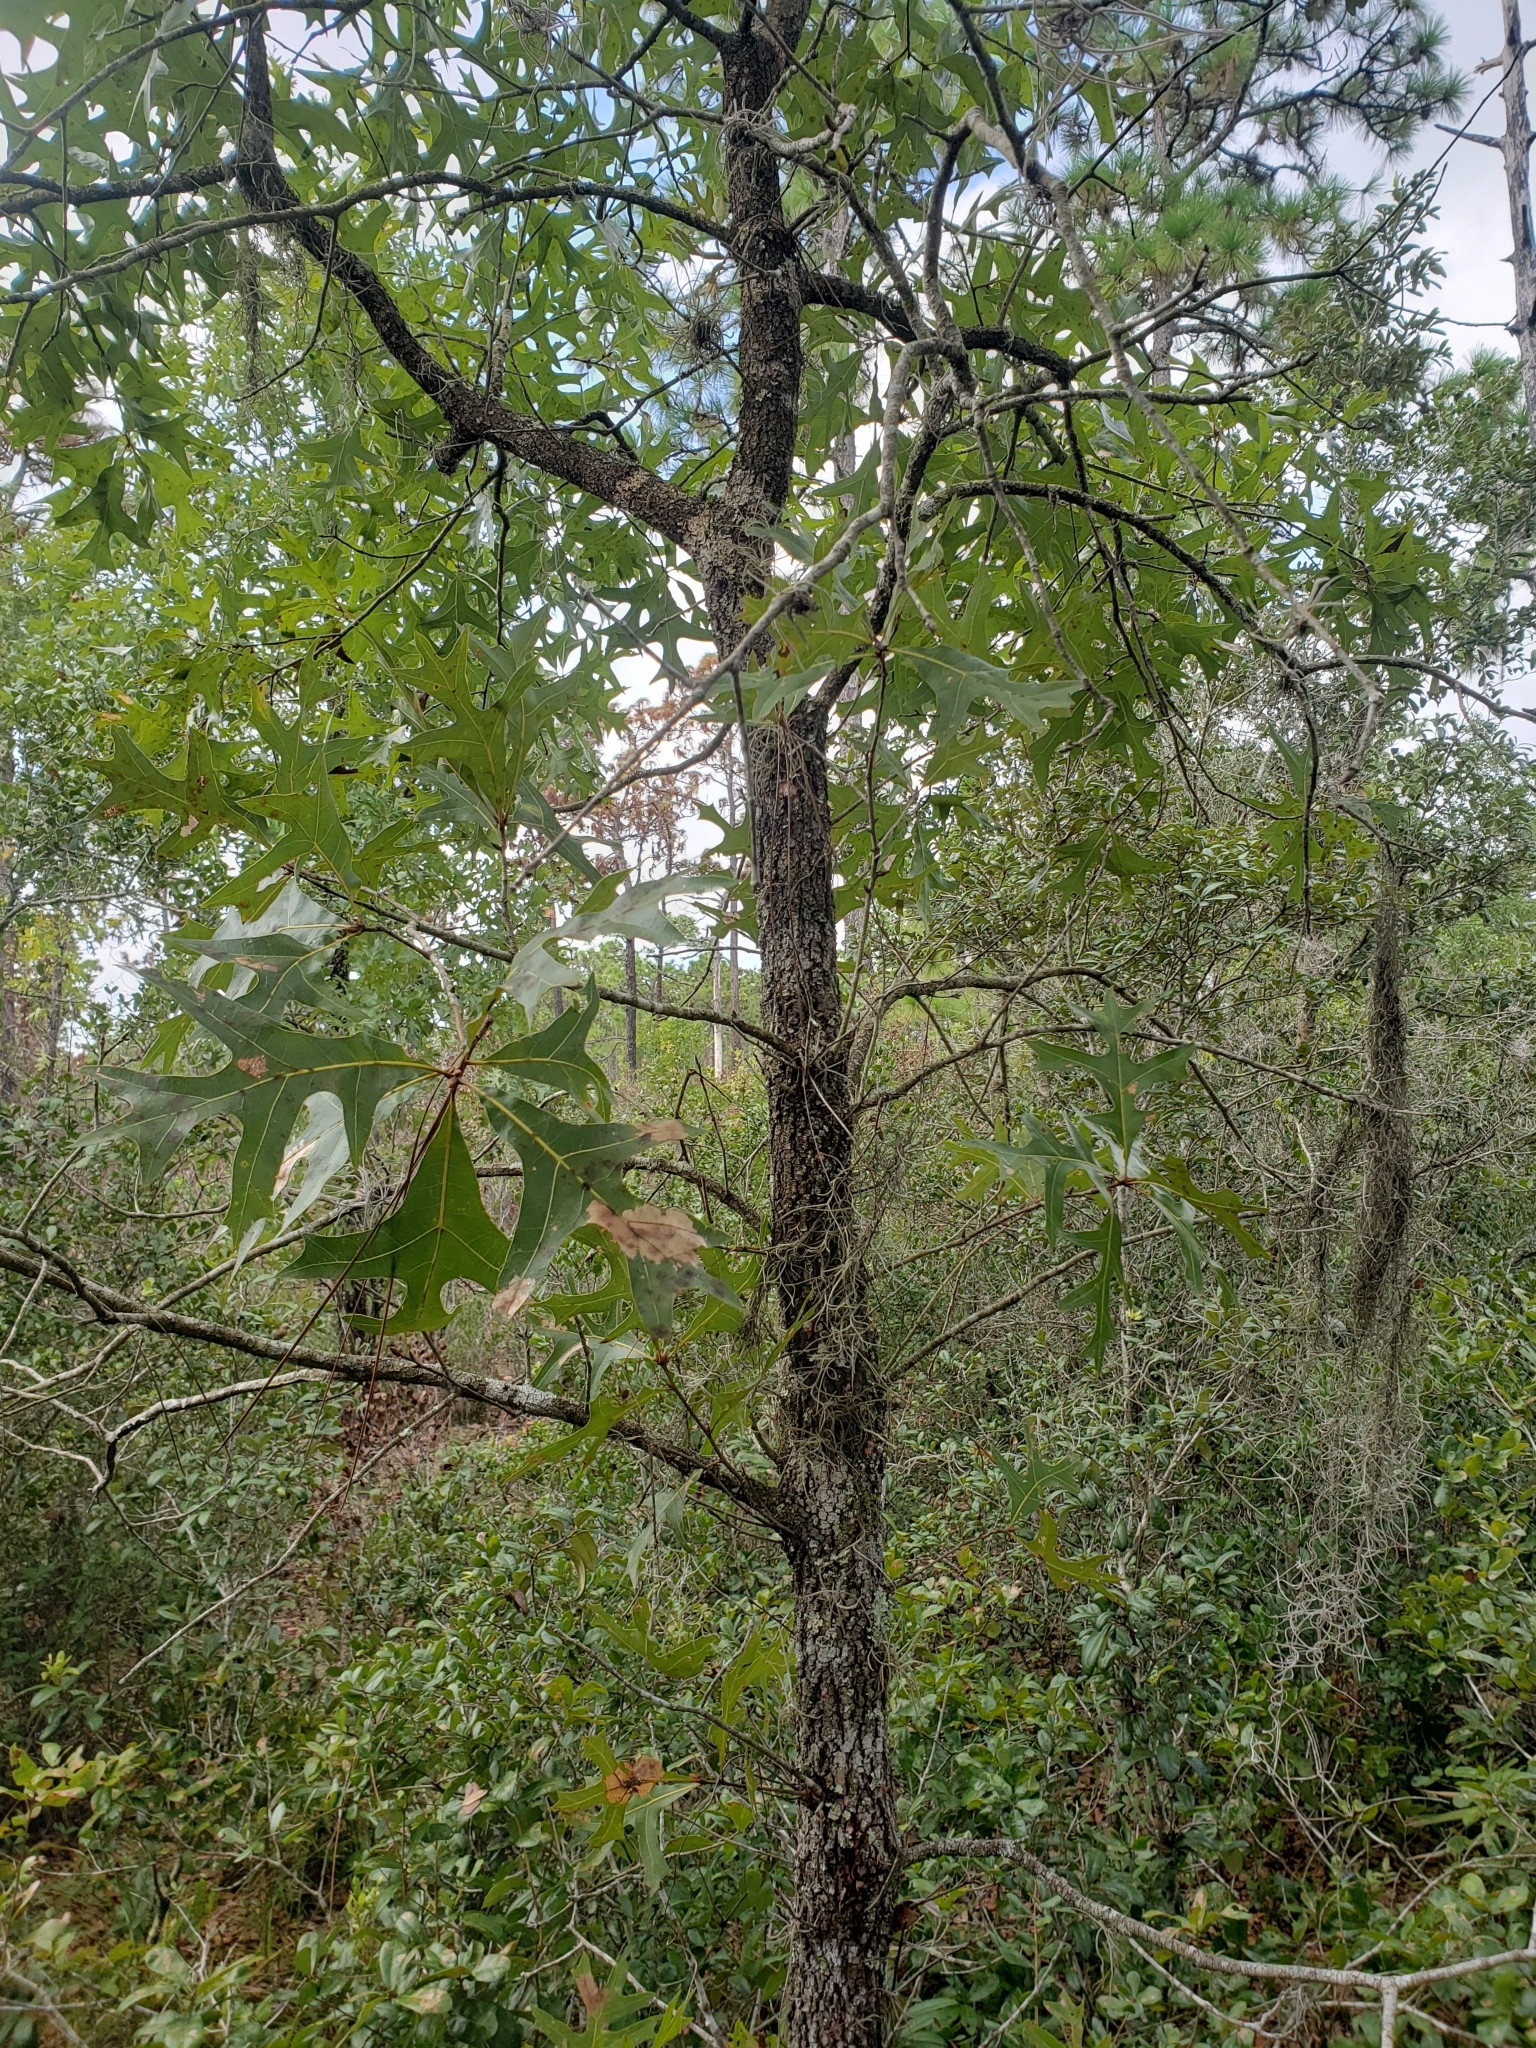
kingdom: Plantae
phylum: Tracheophyta
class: Magnoliopsida
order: Fagales
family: Fagaceae
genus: Quercus
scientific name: Quercus laevis
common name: Turkey oak
